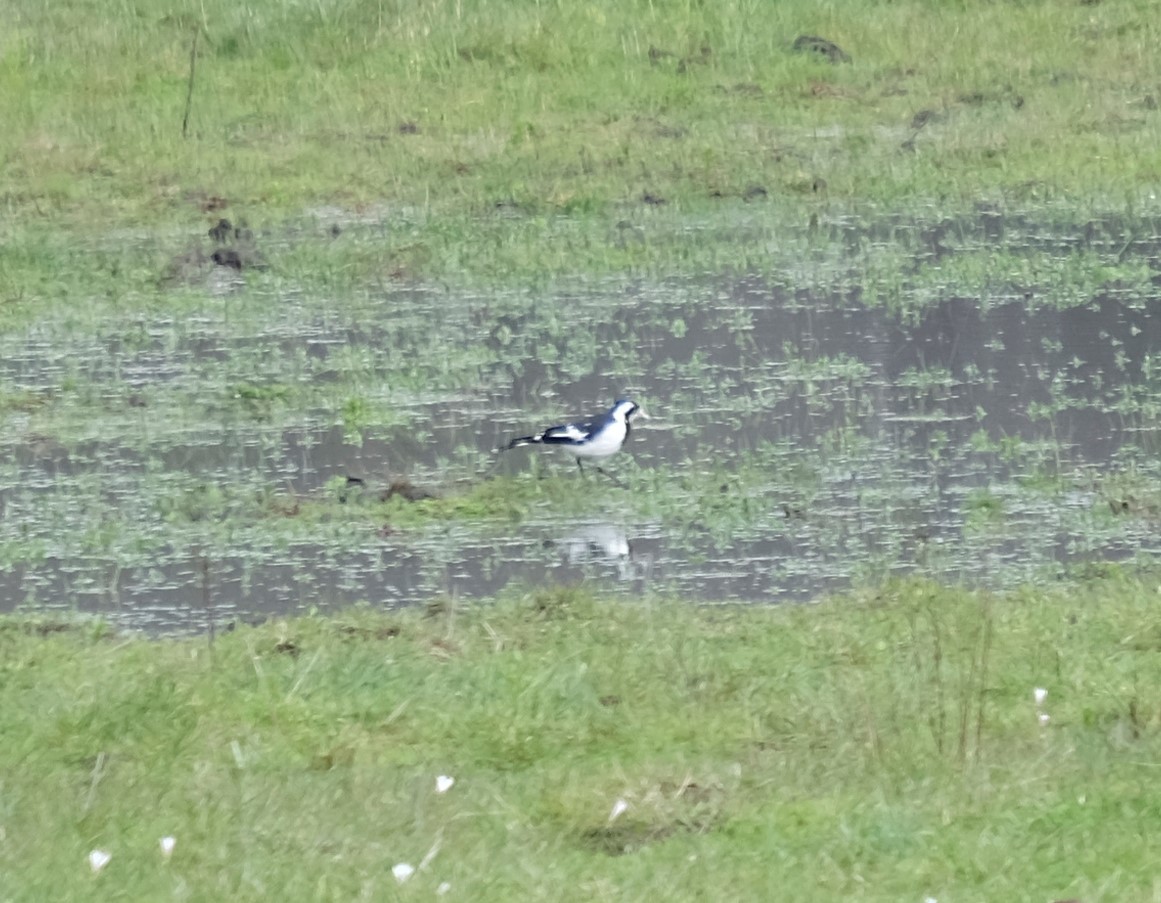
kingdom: Animalia
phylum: Chordata
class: Aves
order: Passeriformes
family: Monarchidae
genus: Grallina
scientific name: Grallina cyanoleuca
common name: Magpie-lark
